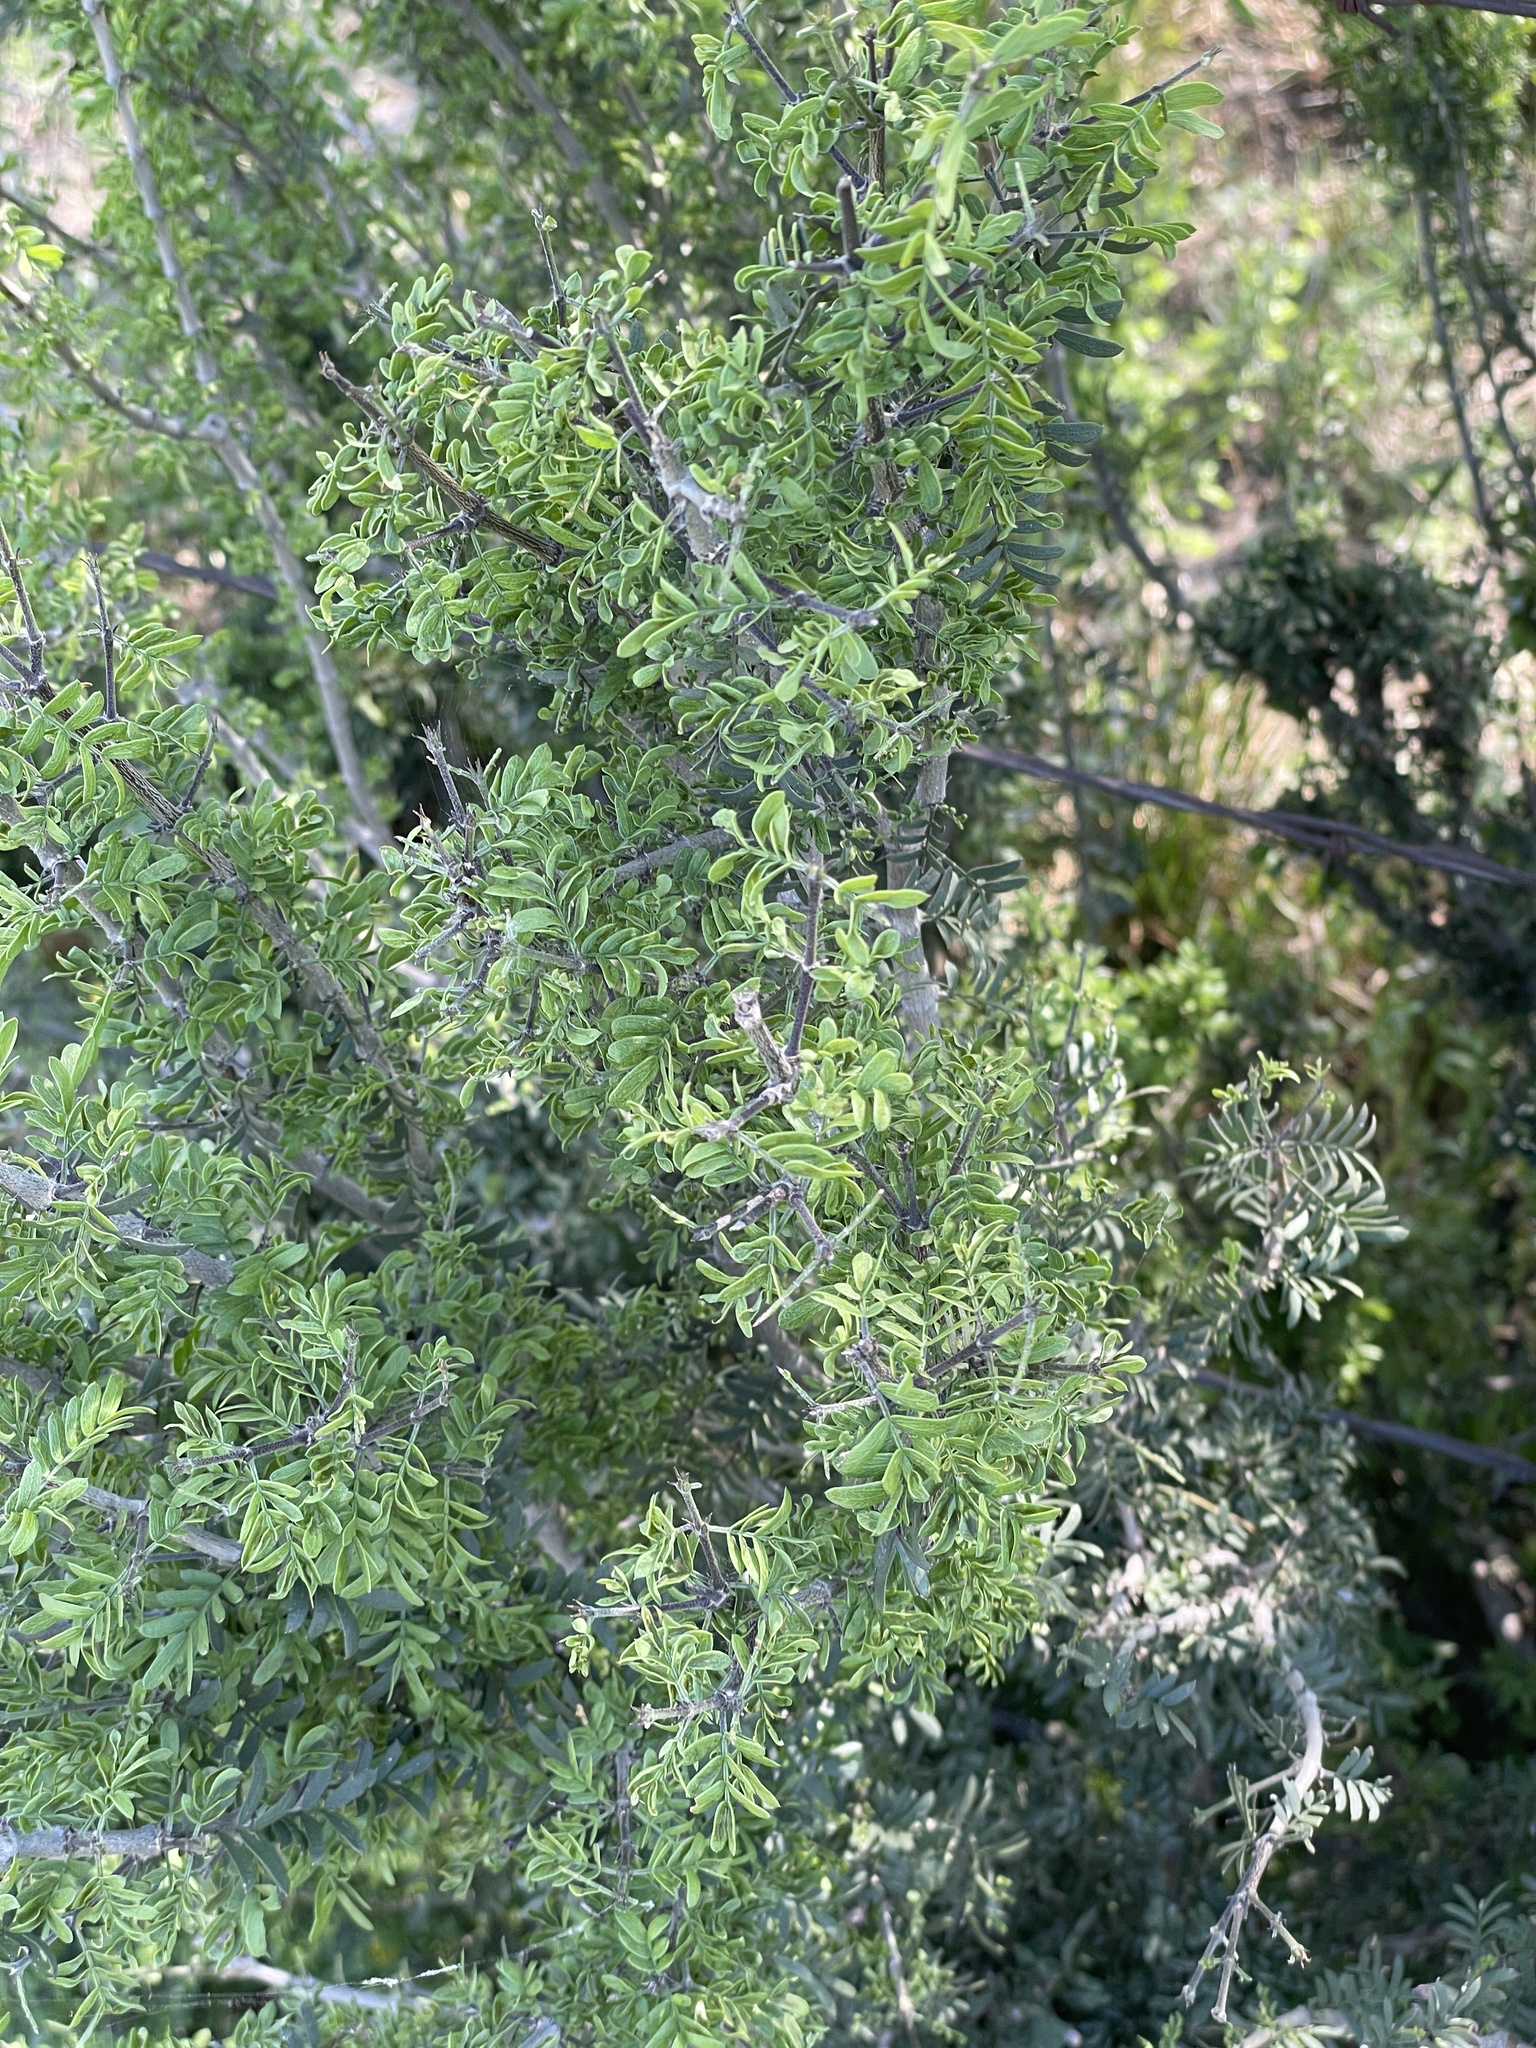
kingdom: Plantae
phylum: Tracheophyta
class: Magnoliopsida
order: Zygophyllales
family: Zygophyllaceae
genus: Porlieria
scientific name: Porlieria angustifolia
